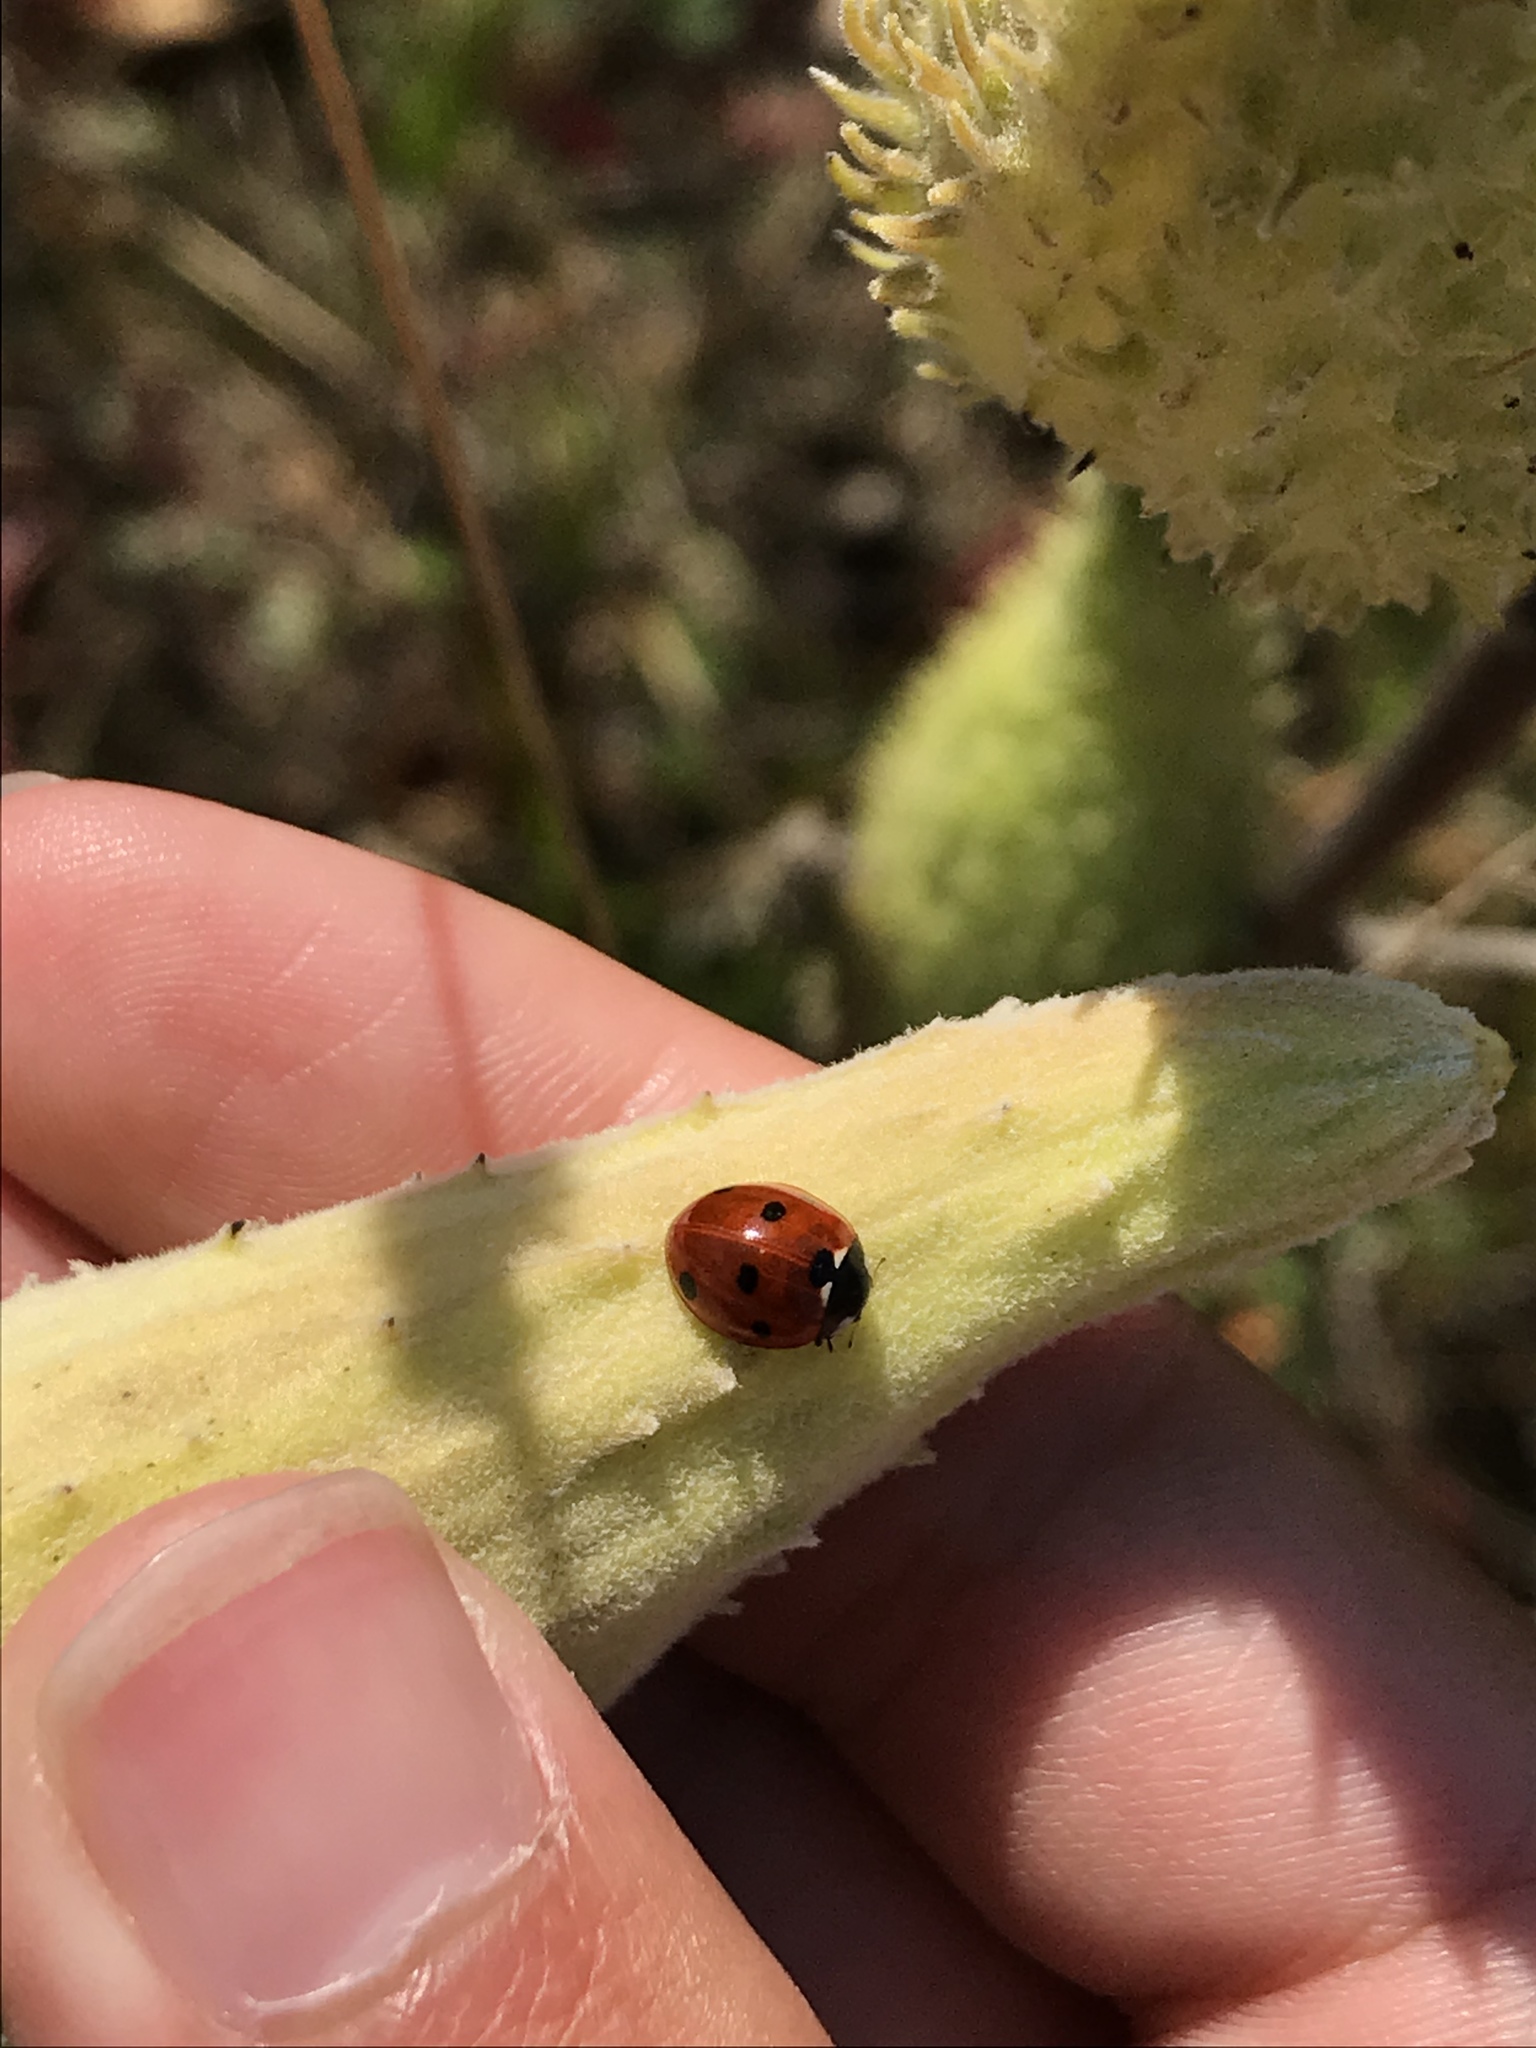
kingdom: Animalia
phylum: Arthropoda
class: Insecta
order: Coleoptera
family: Coccinellidae
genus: Coccinella
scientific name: Coccinella septempunctata
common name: Sevenspotted lady beetle
